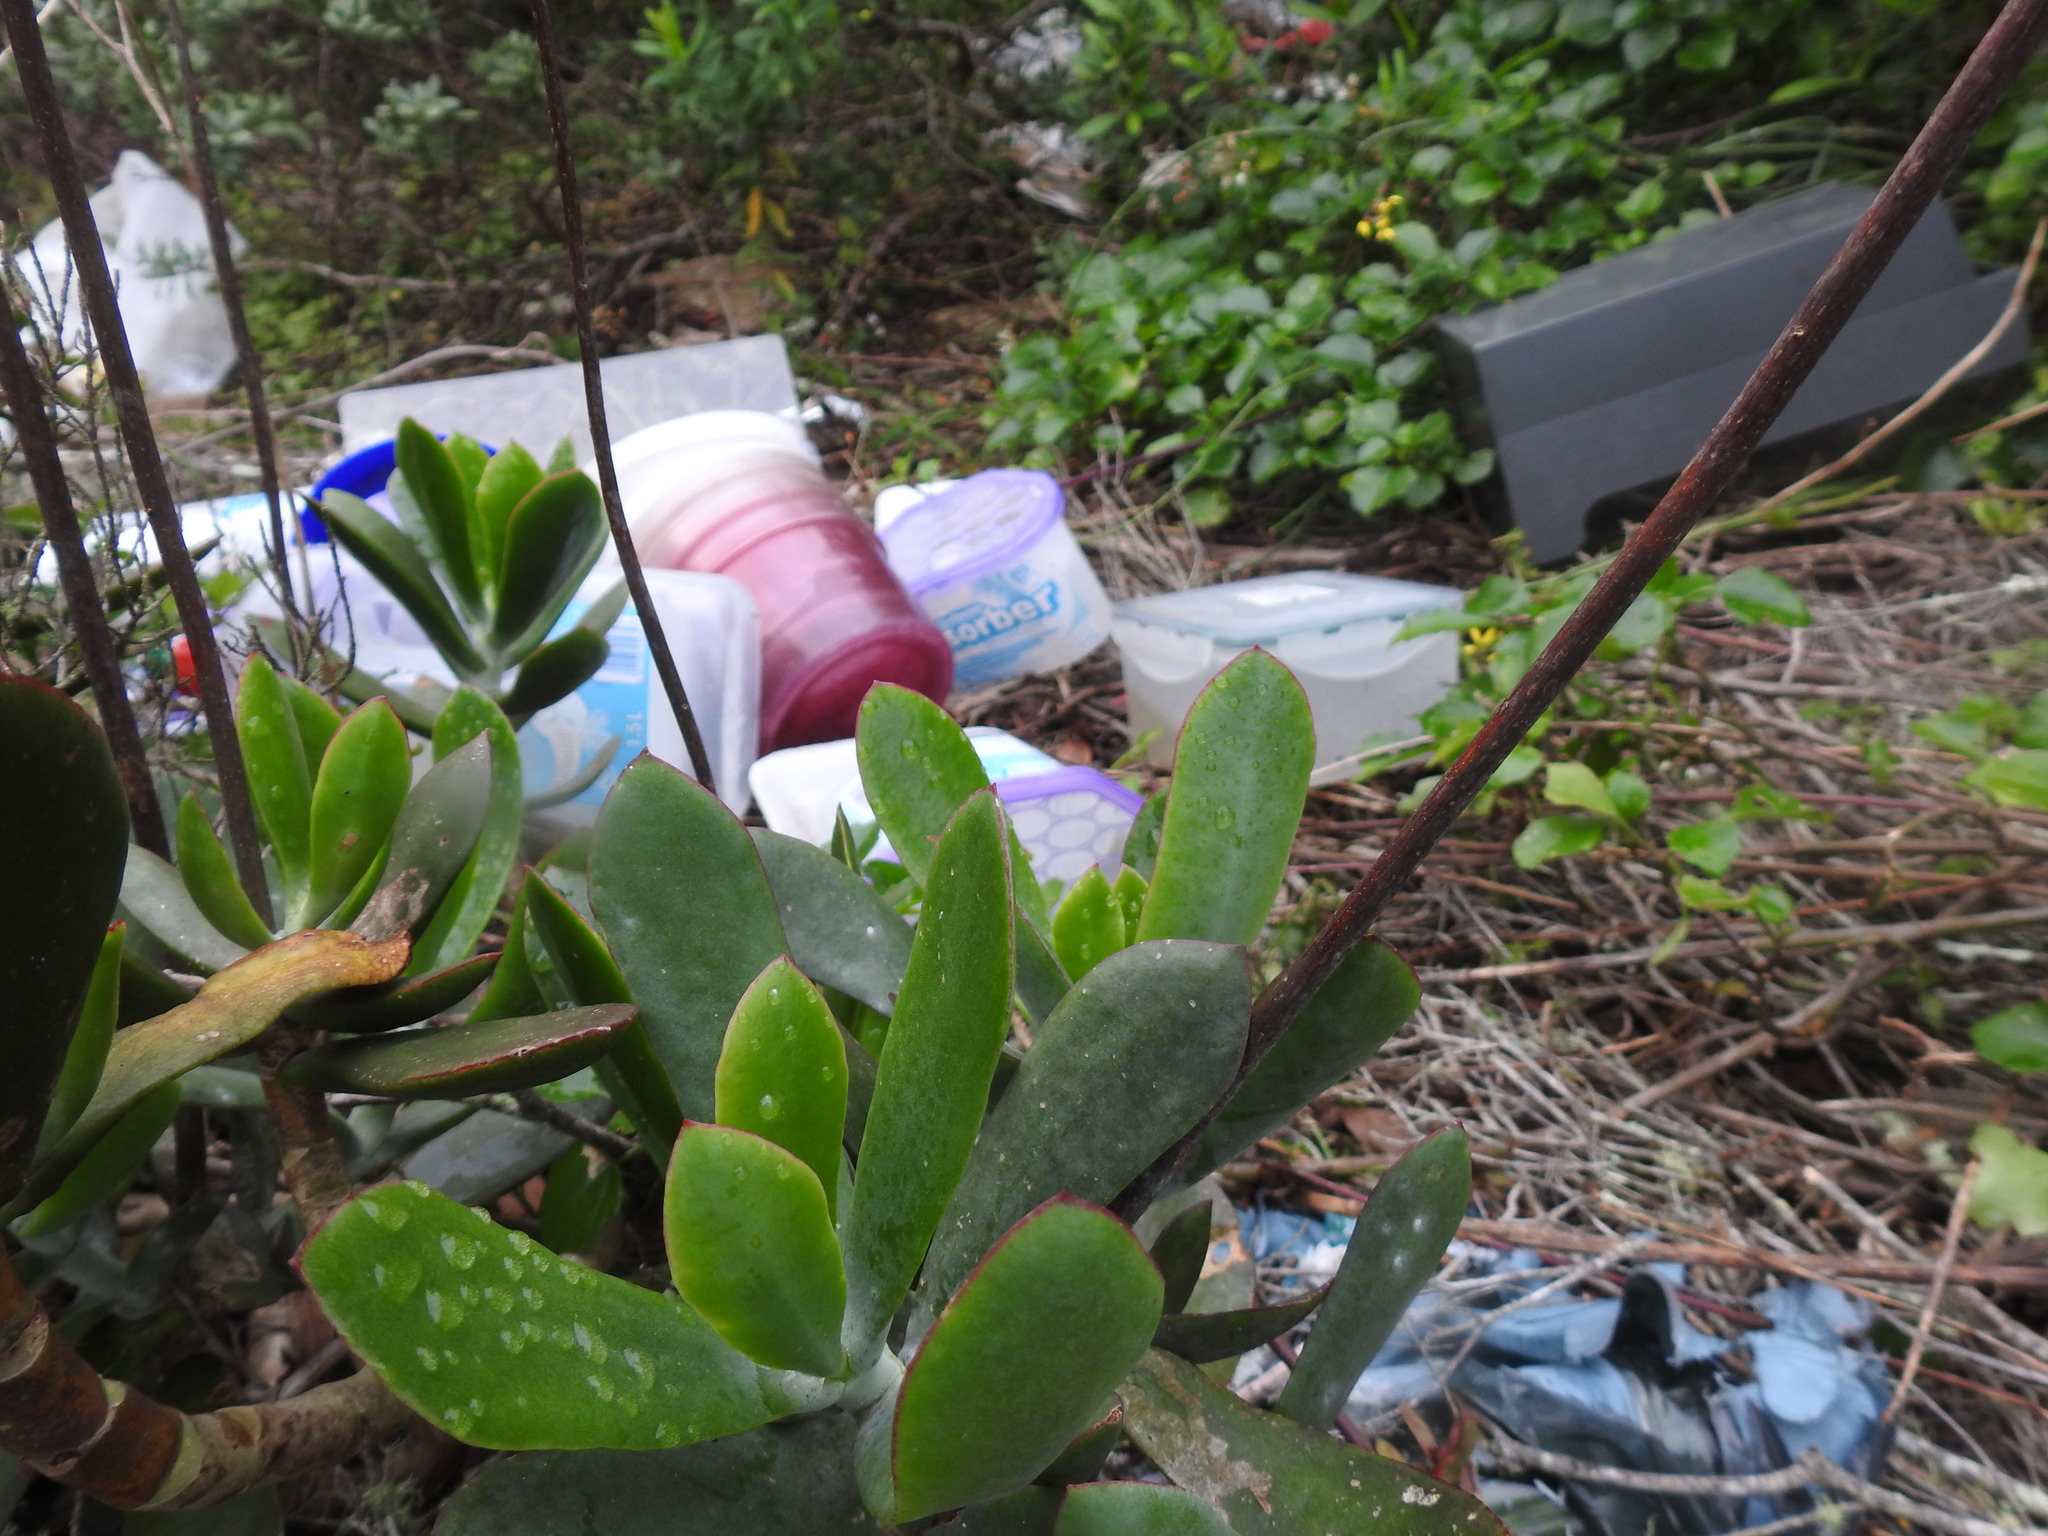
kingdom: Plantae
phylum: Tracheophyta
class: Magnoliopsida
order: Saxifragales
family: Crassulaceae
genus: Cotyledon
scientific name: Cotyledon orbiculata
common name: Pig's ear
